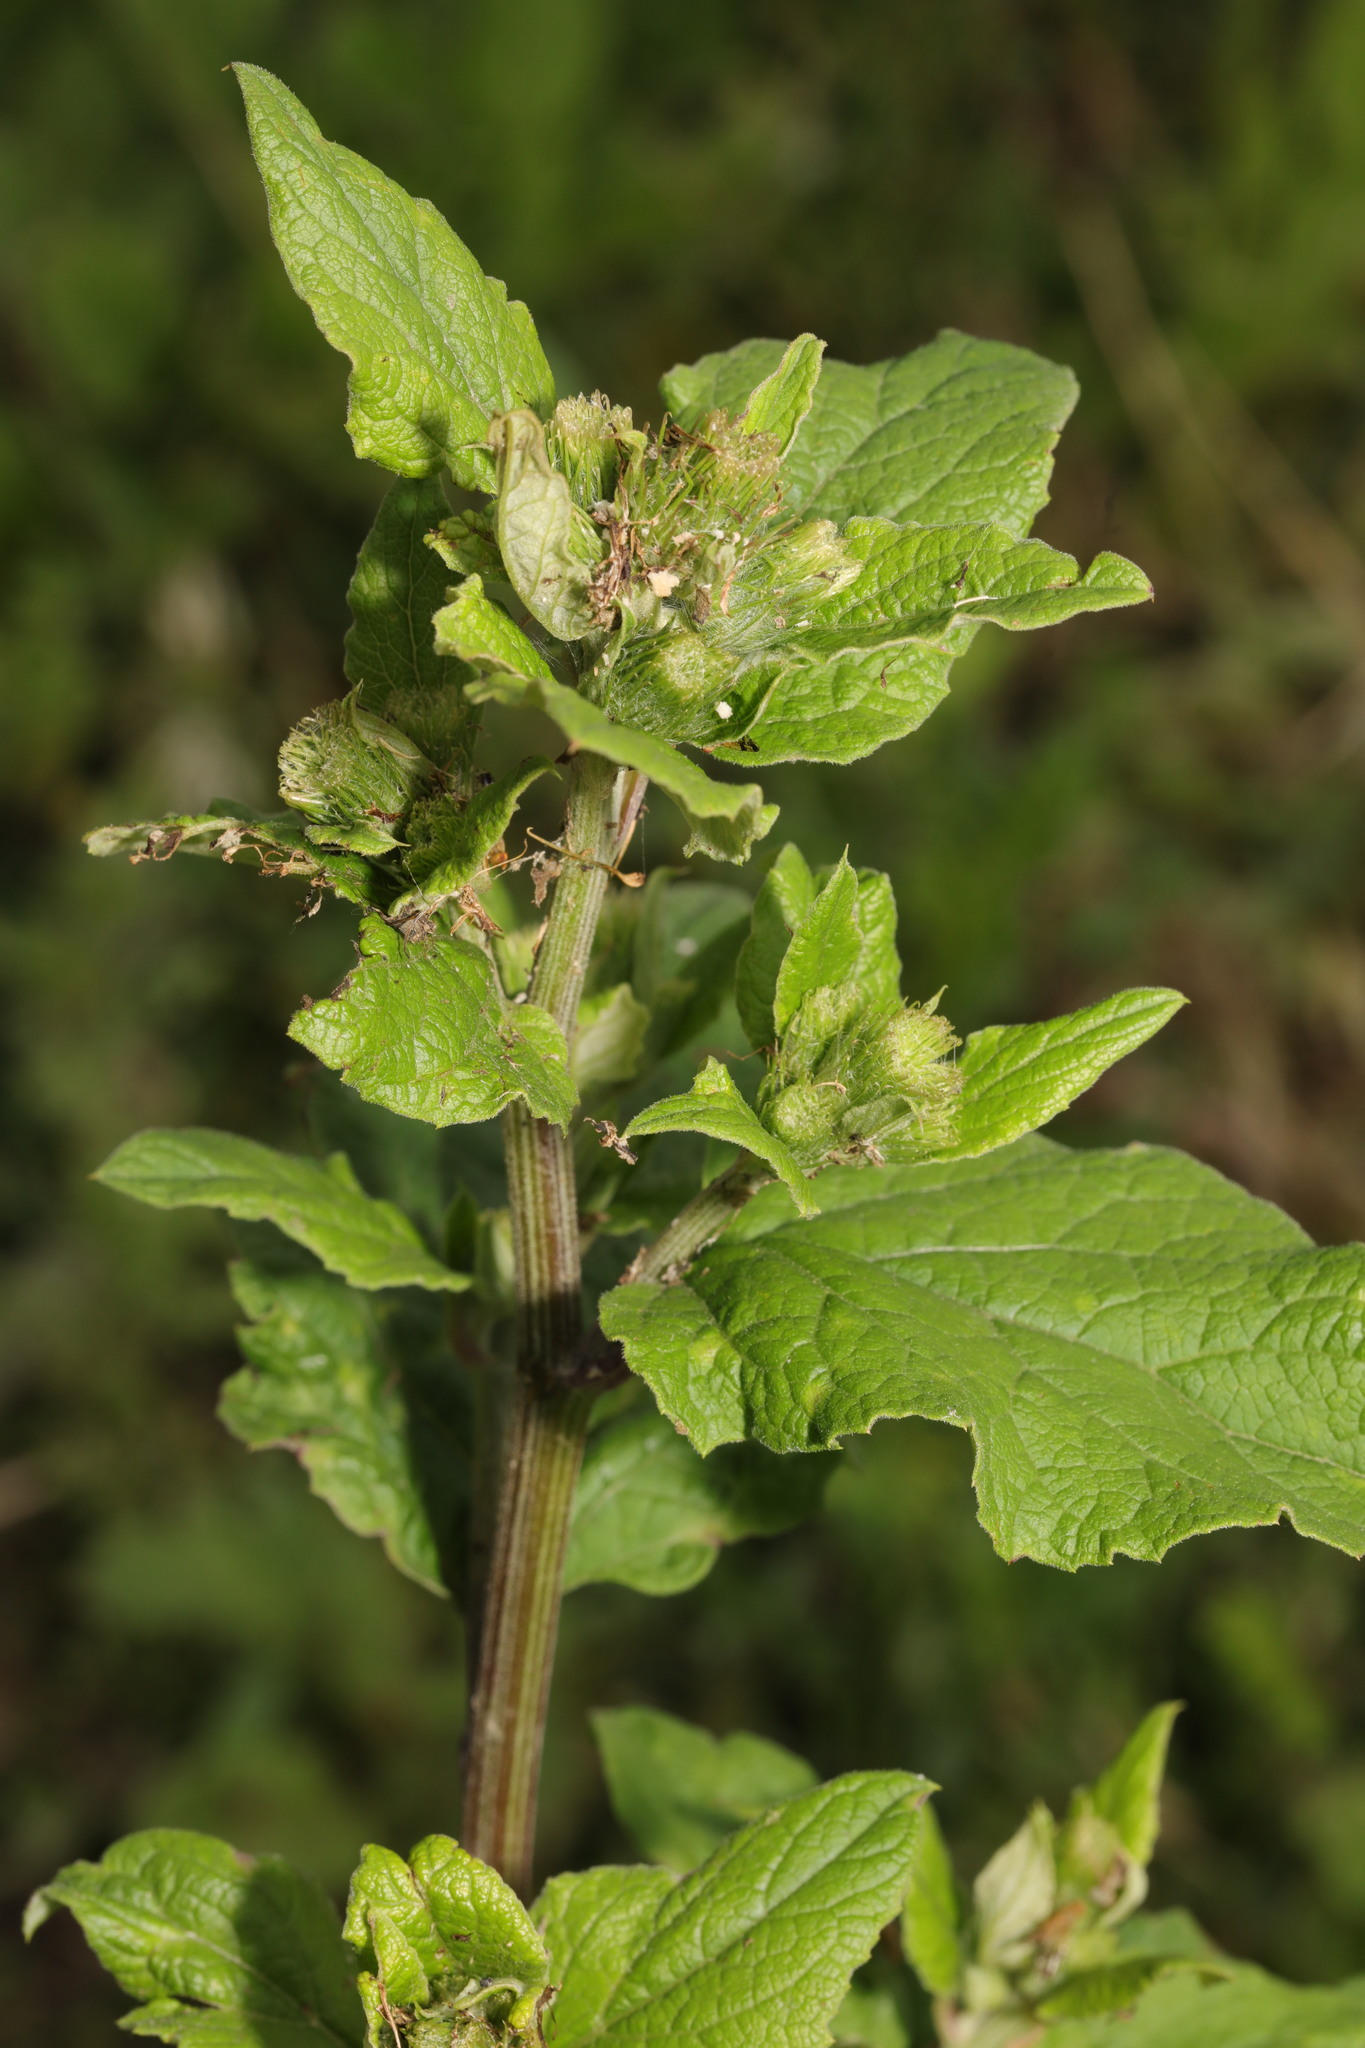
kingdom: Plantae
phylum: Tracheophyta
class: Magnoliopsida
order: Asterales
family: Asteraceae
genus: Arctium
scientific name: Arctium minus
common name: Lesser burdock
